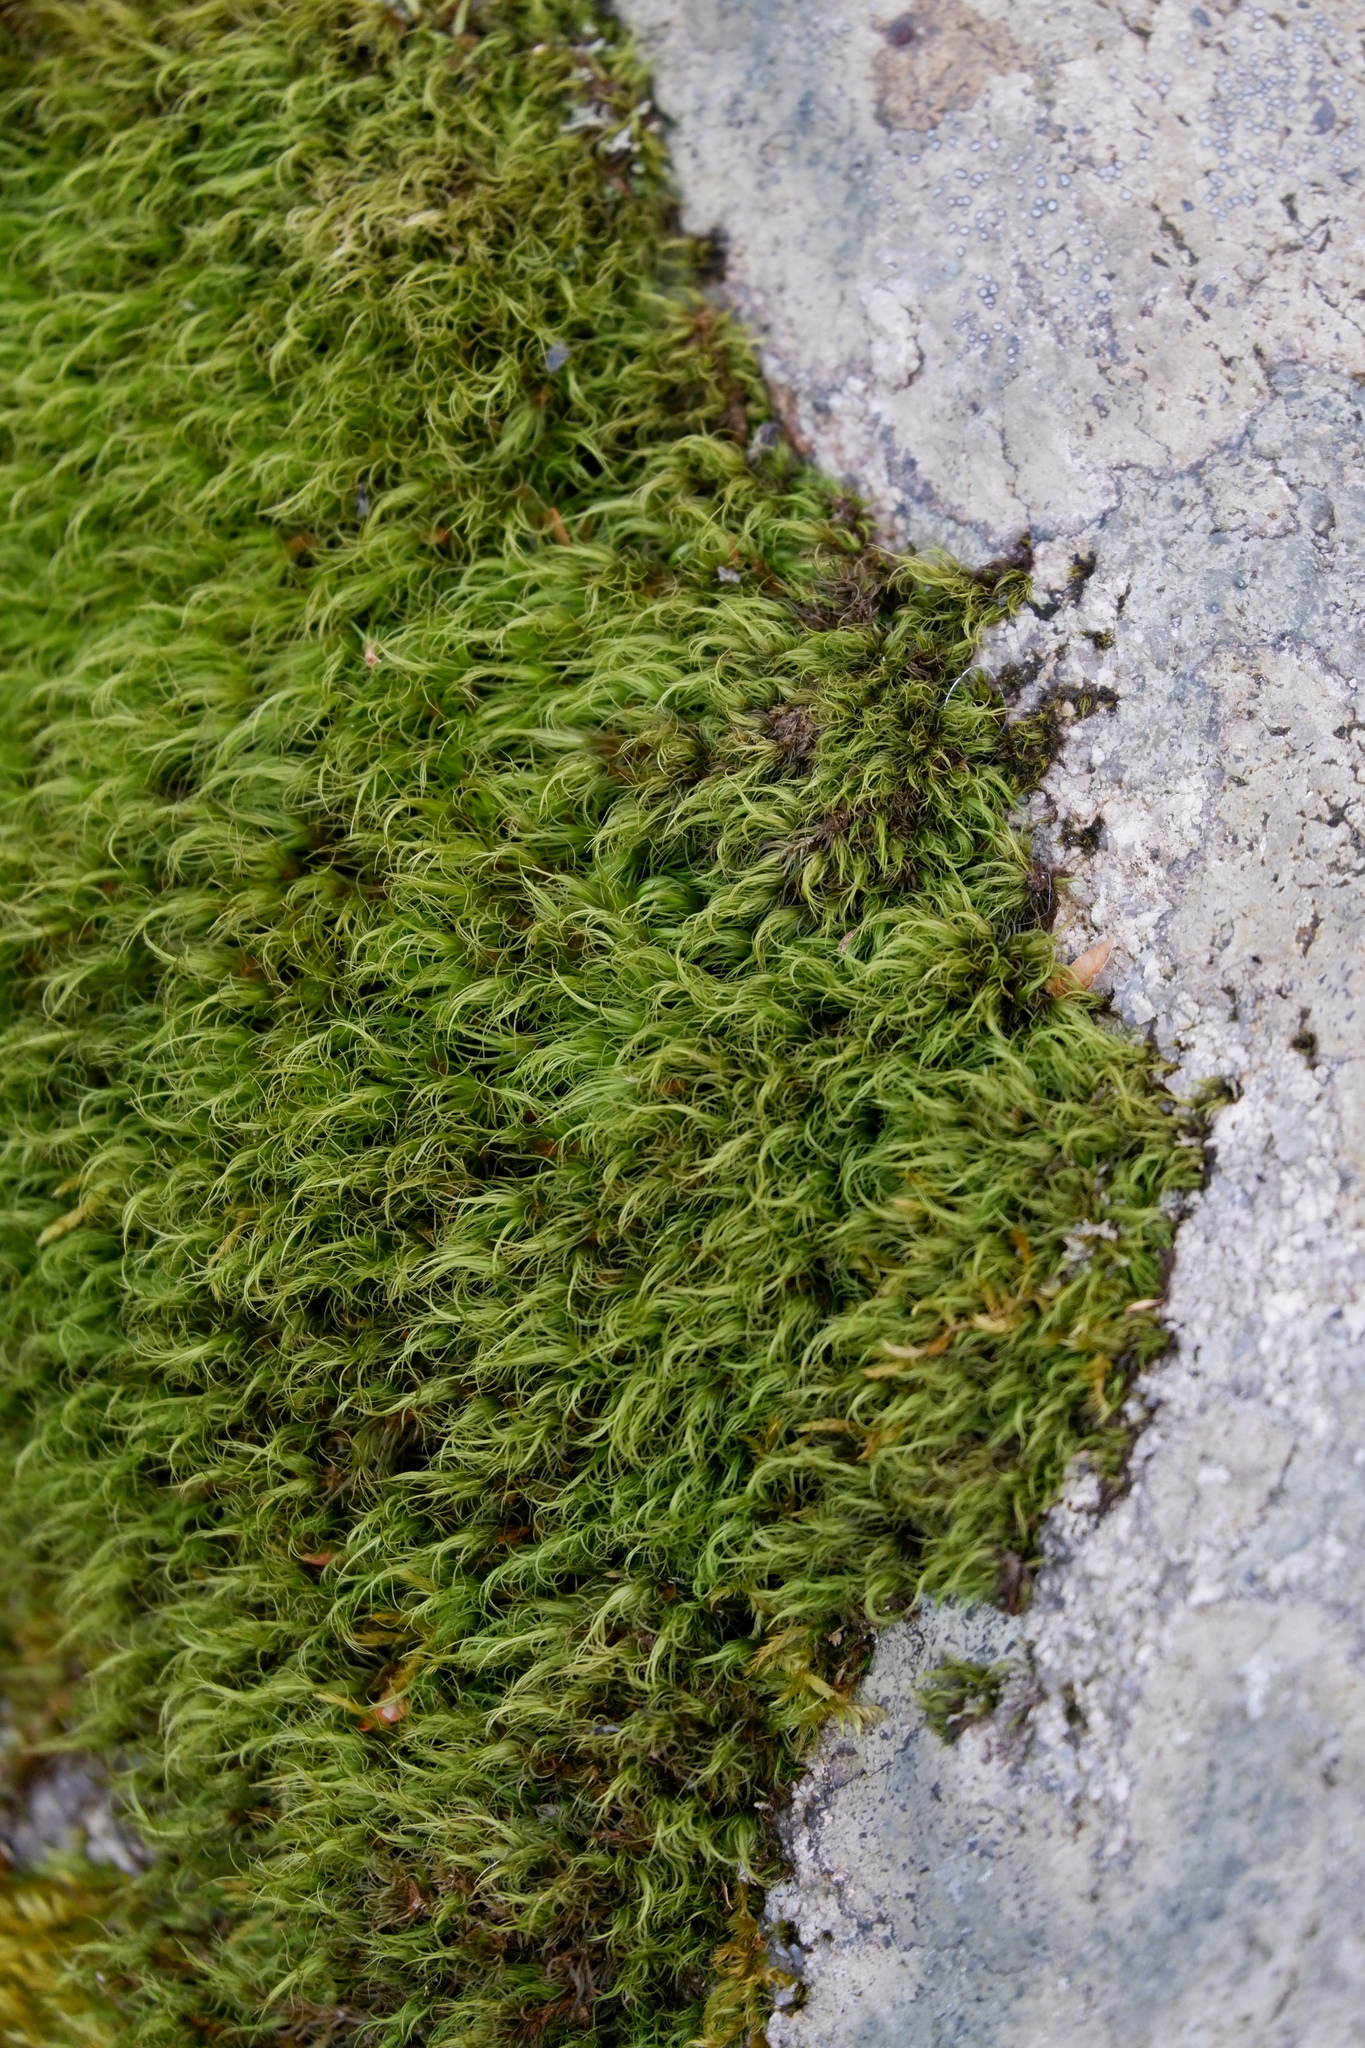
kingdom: Plantae
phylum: Bryophyta
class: Bryopsida
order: Dicranales
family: Dicranaceae
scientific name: Dicranaceae
